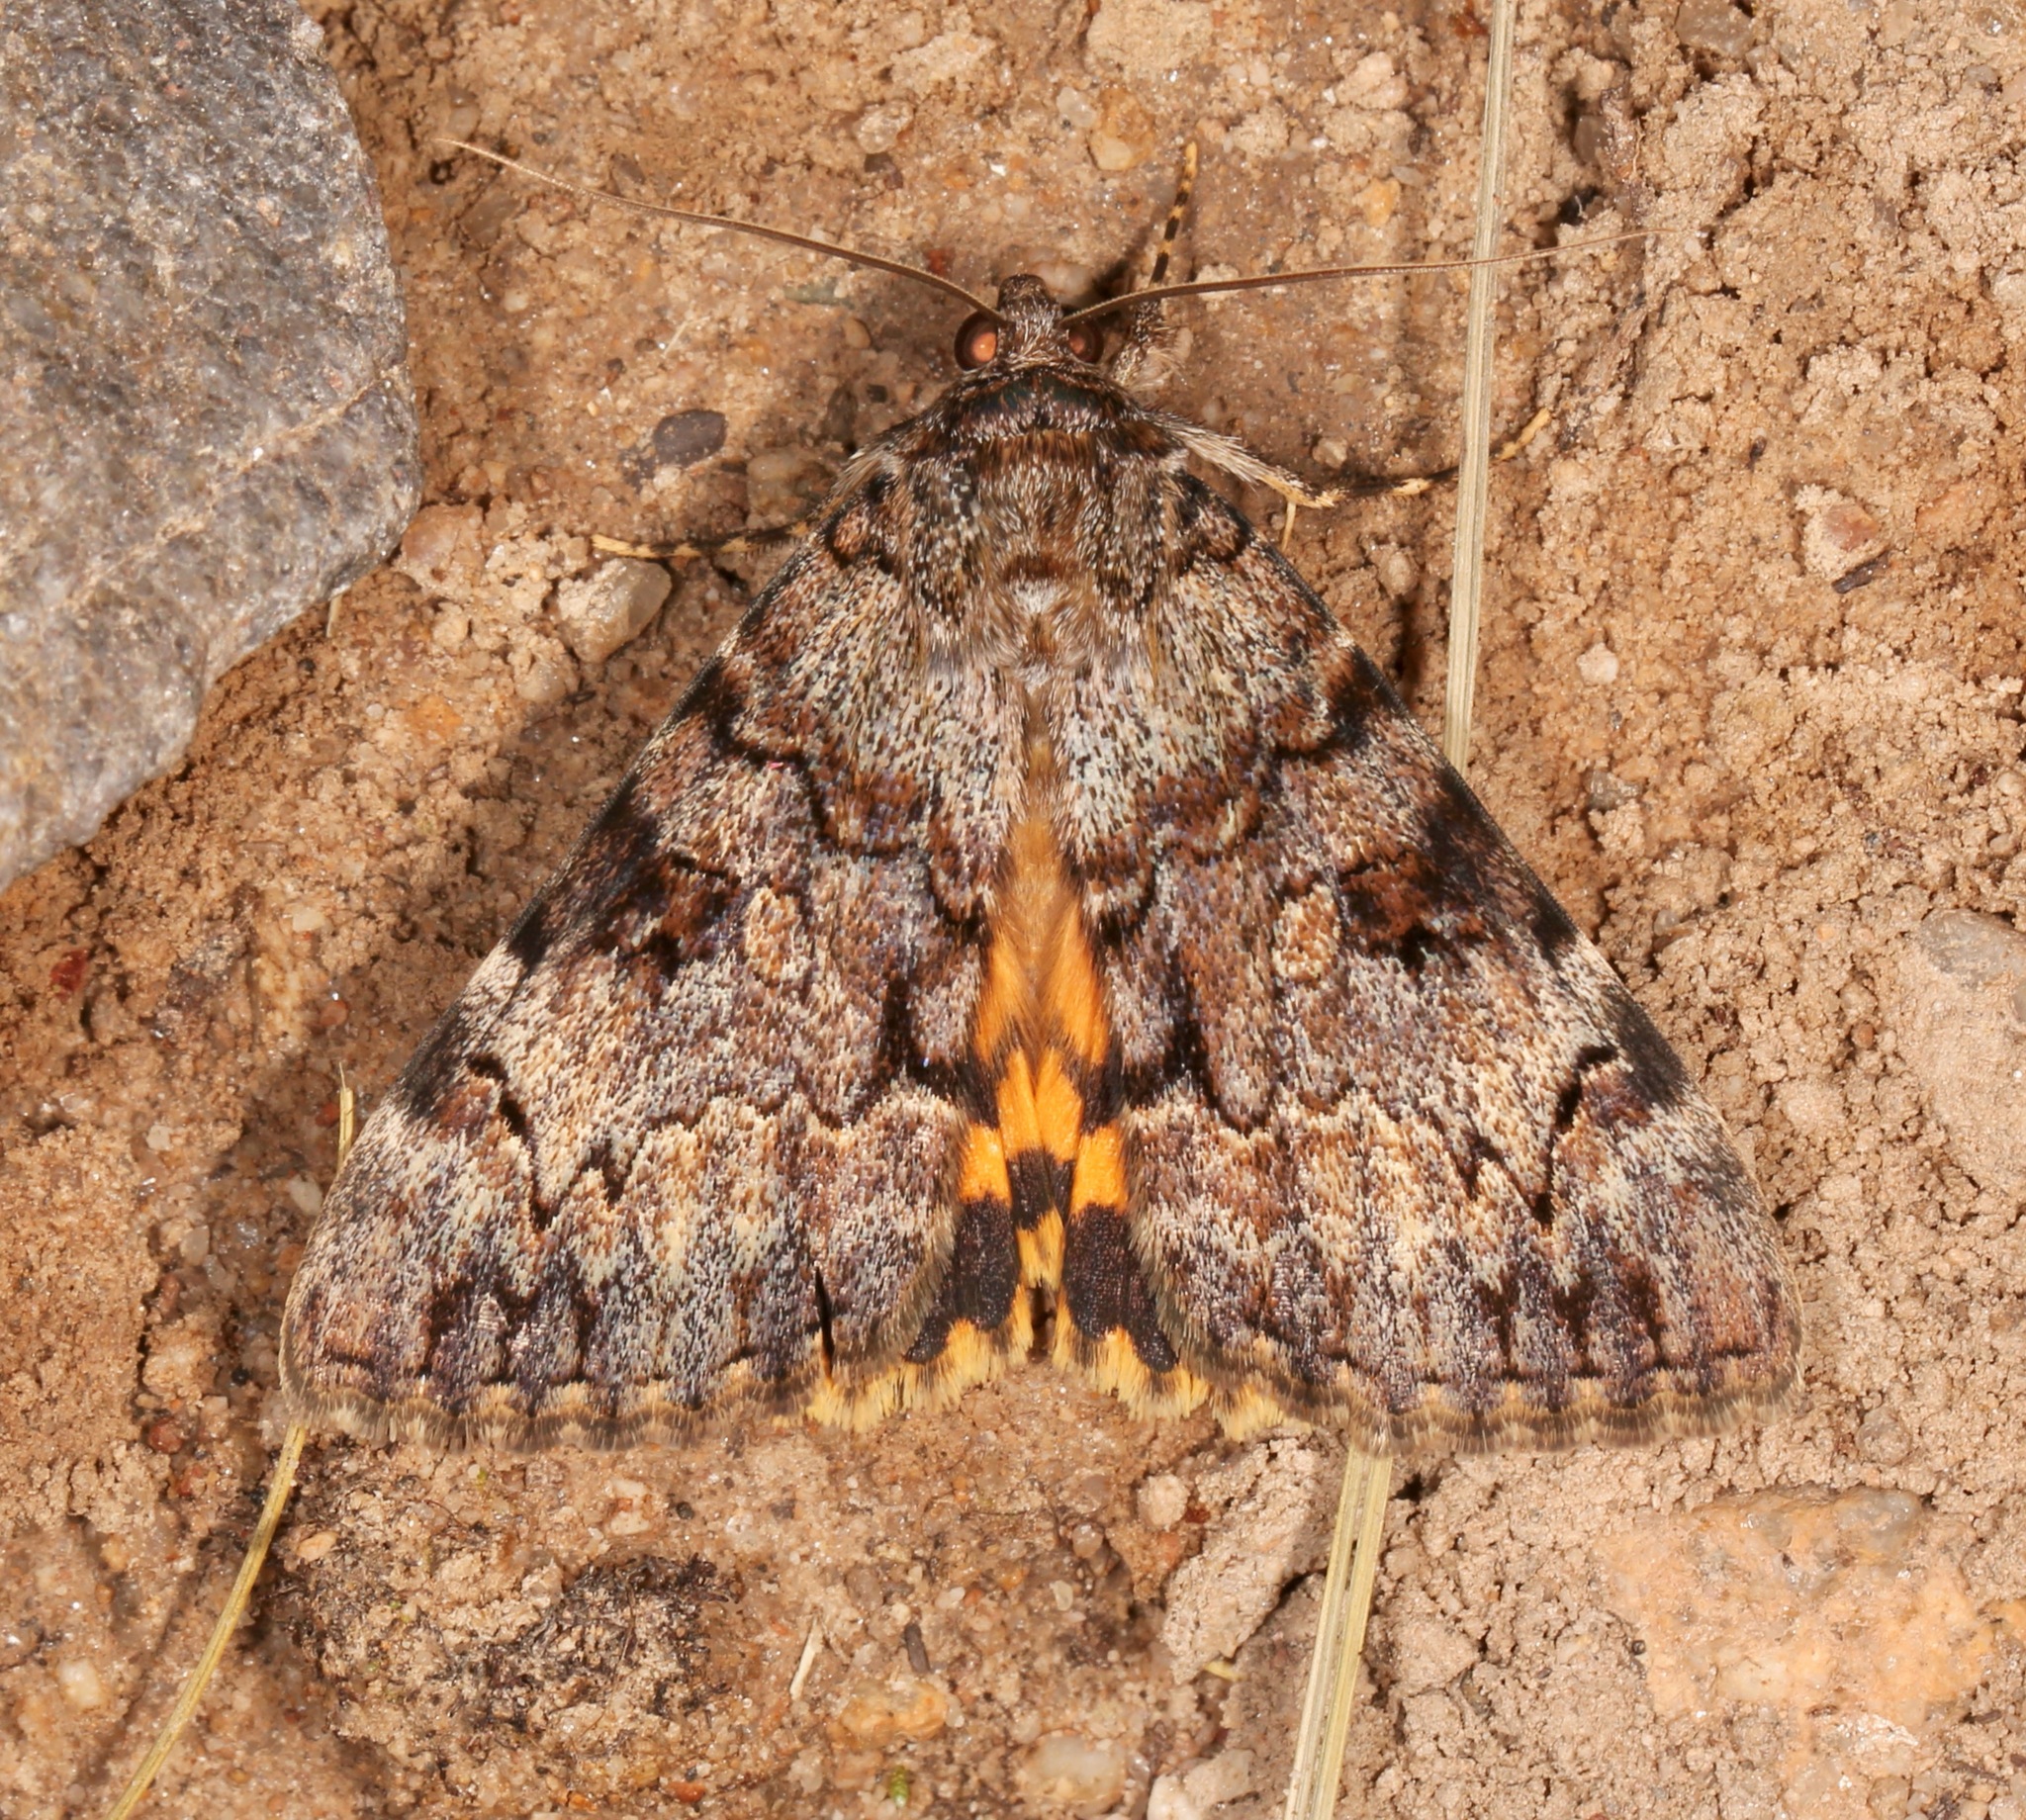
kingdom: Animalia
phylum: Arthropoda
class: Insecta
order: Lepidoptera
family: Erebidae
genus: Catocala
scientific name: Catocala desdemona
